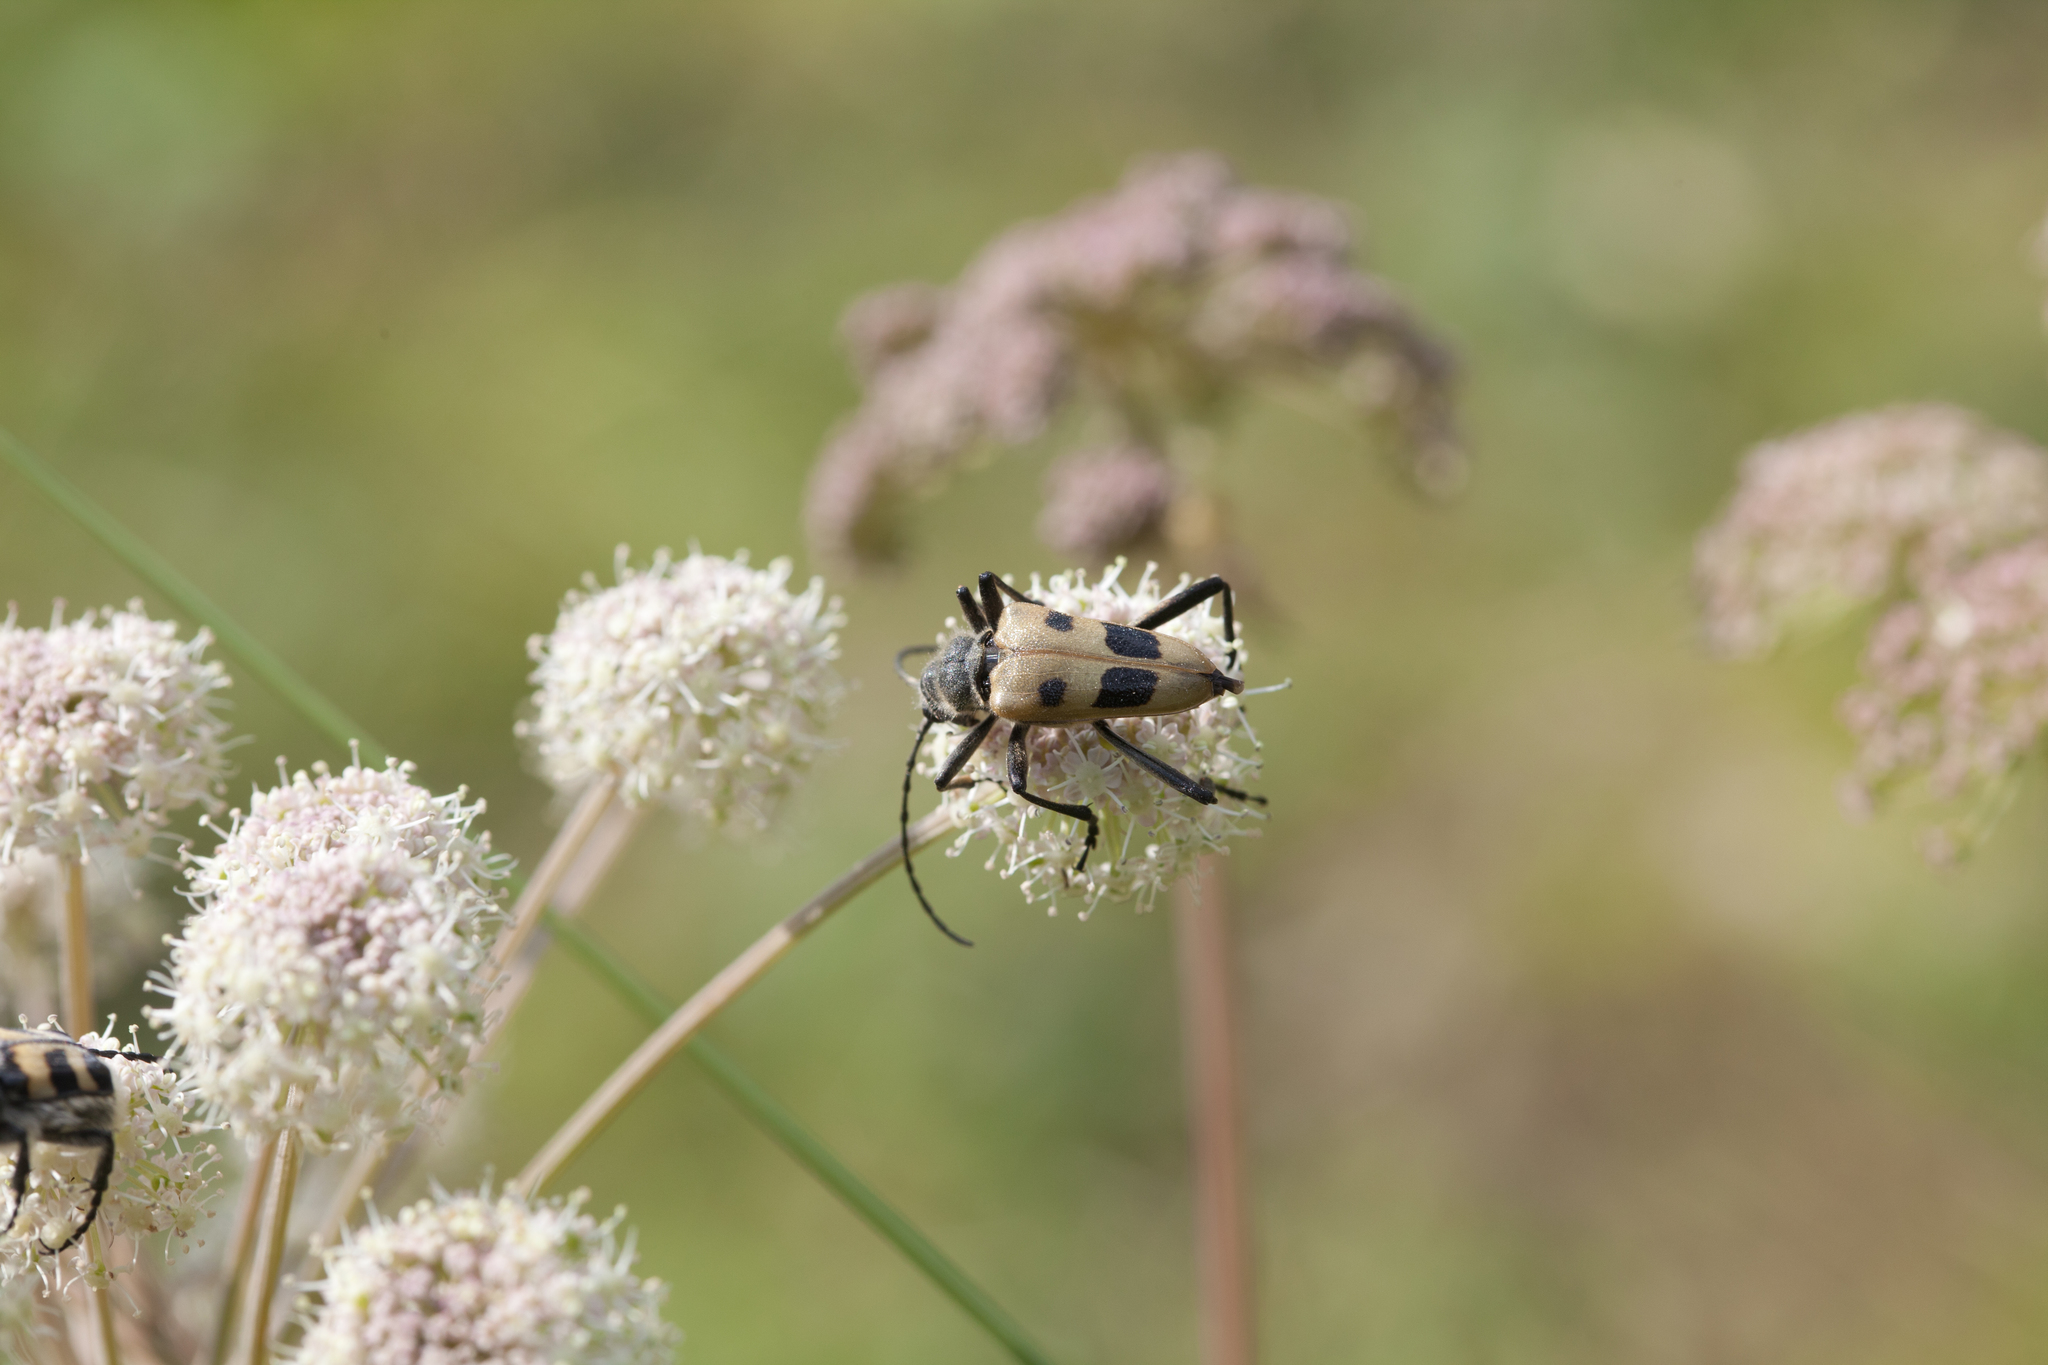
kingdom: Animalia
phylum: Arthropoda
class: Insecta
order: Coleoptera
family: Cerambycidae
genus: Pachyta
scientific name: Pachyta quadrimaculata
